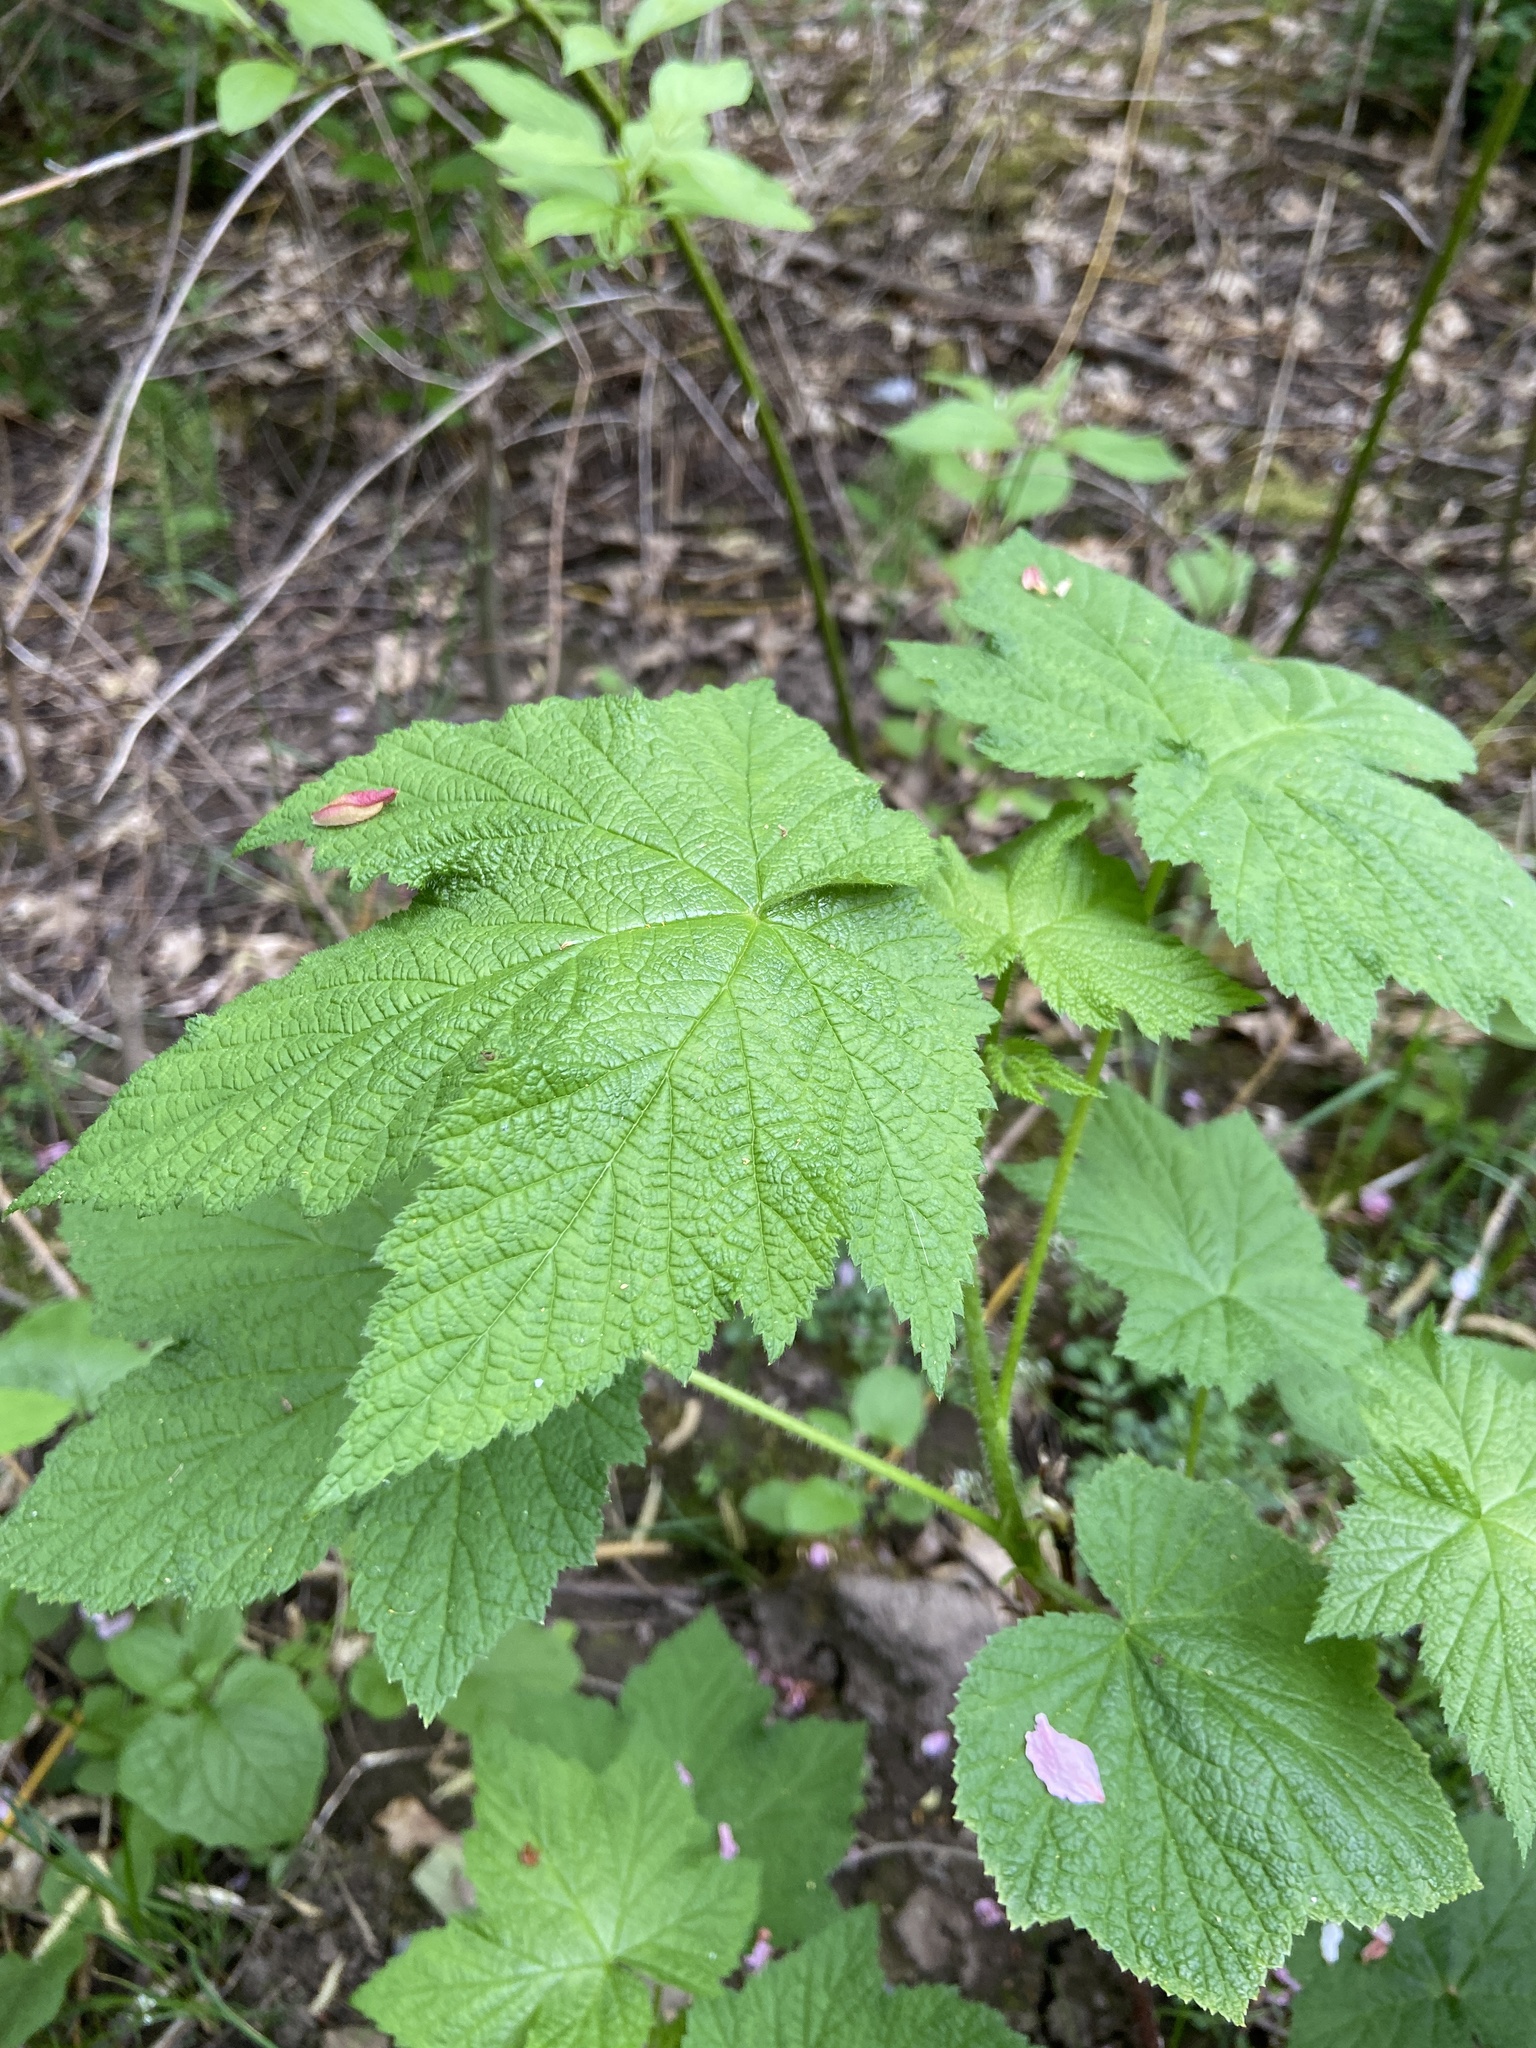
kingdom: Plantae
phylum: Tracheophyta
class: Magnoliopsida
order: Rosales
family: Rosaceae
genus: Rubus
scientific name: Rubus parviflorus
